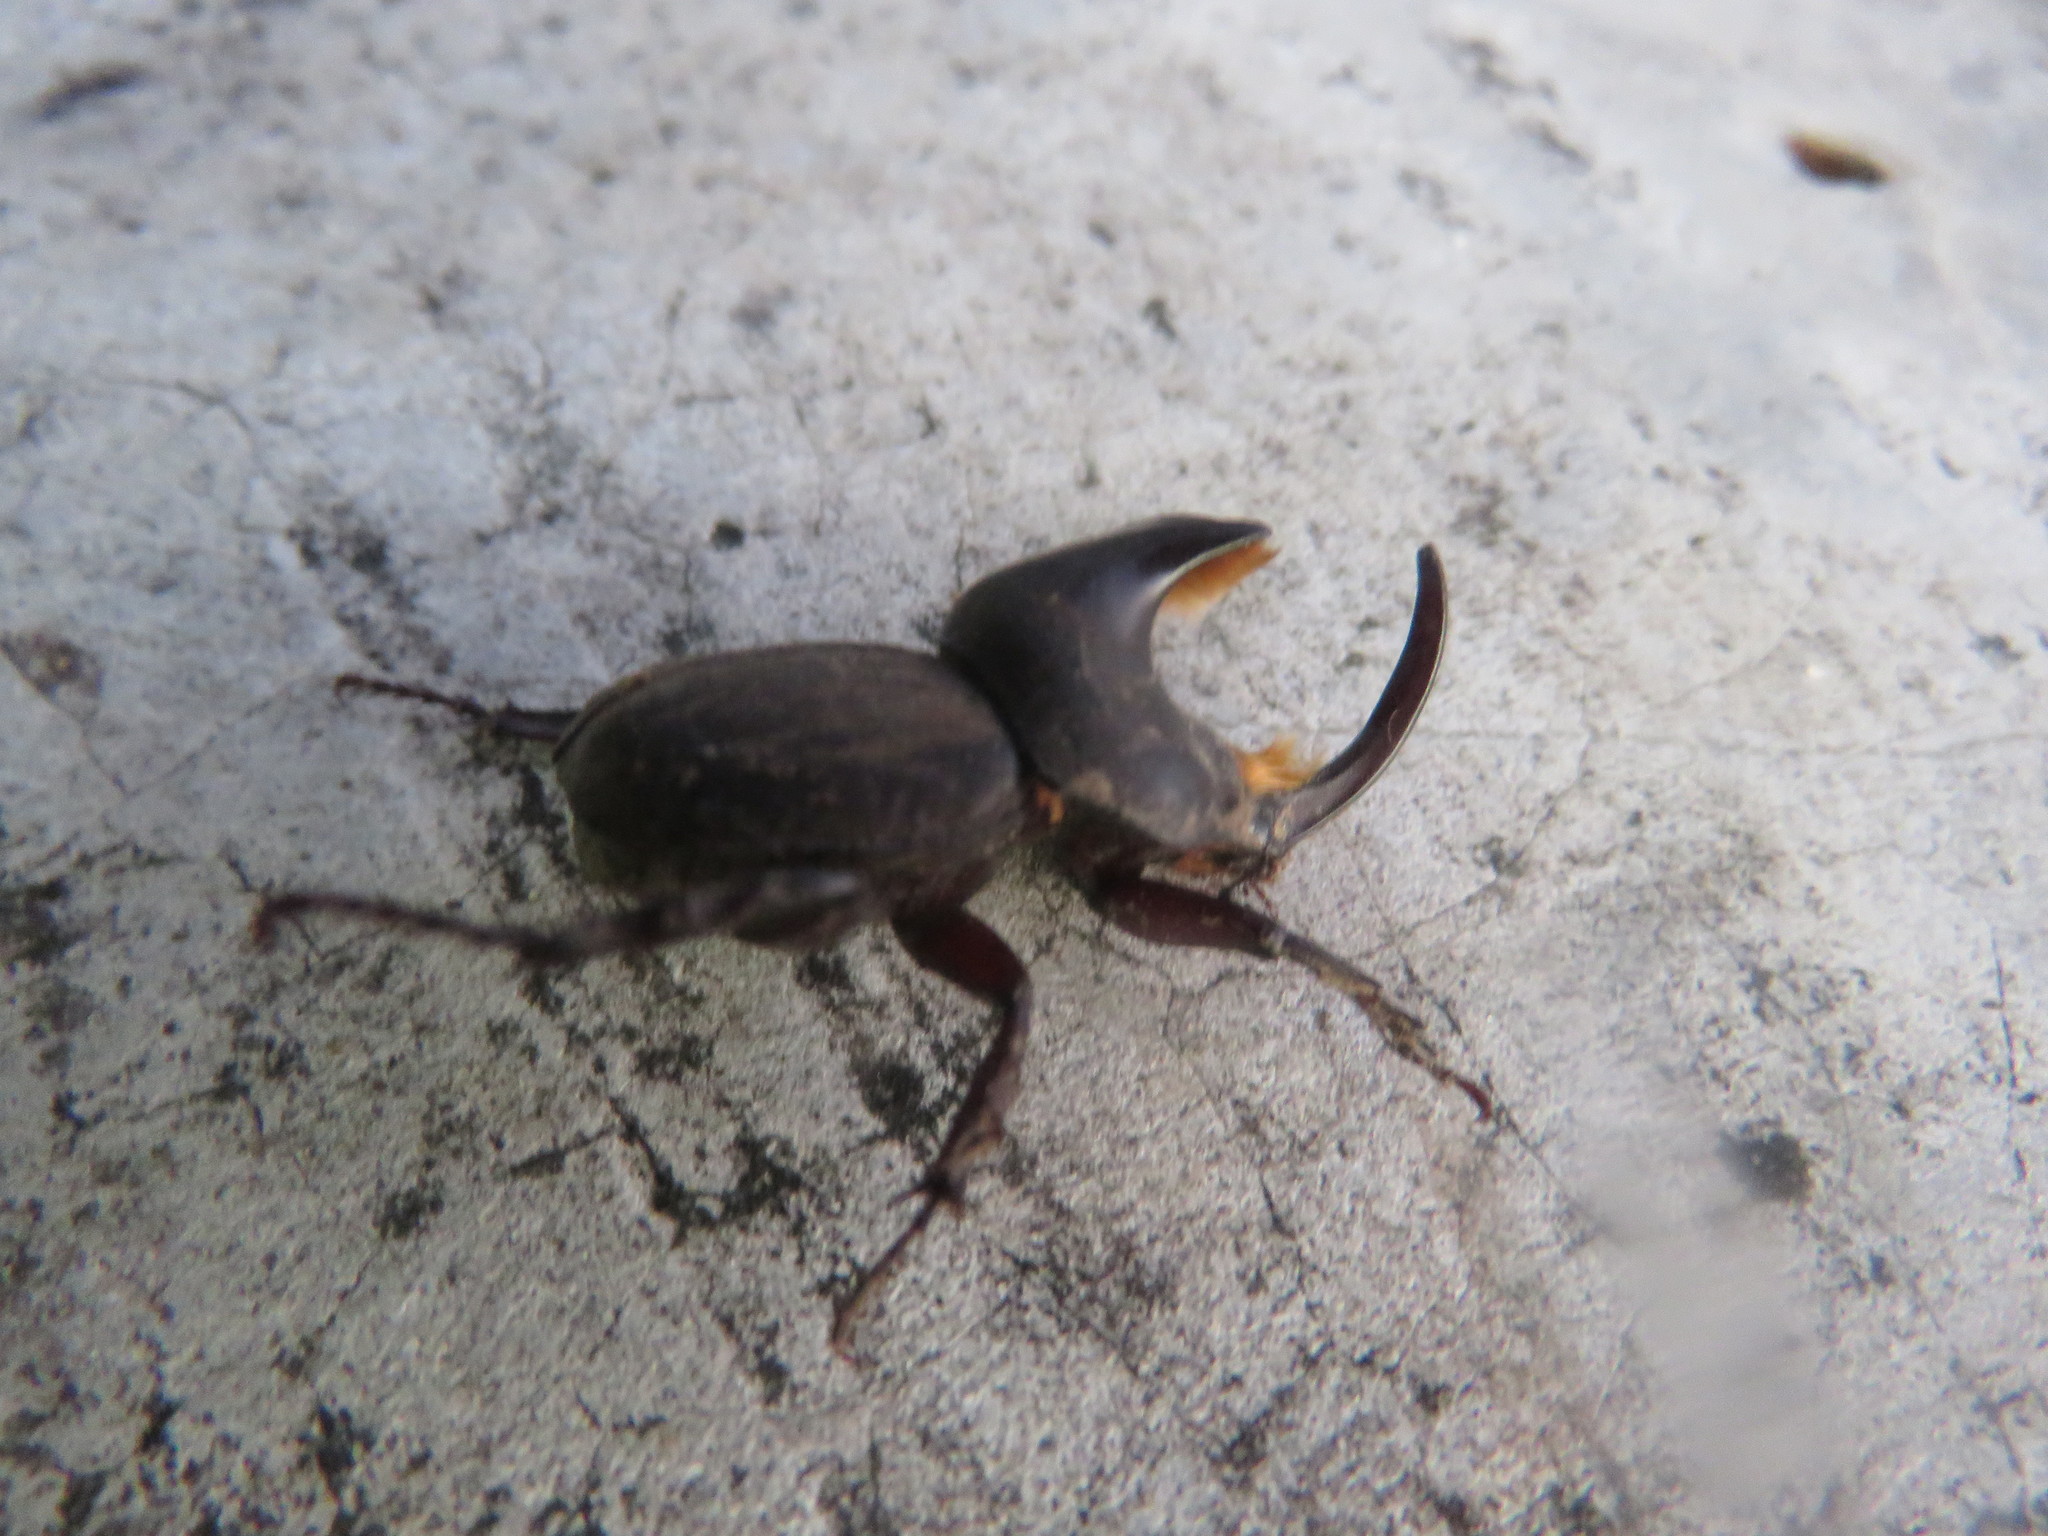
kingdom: Animalia
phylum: Arthropoda
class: Insecta
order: Coleoptera
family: Scarabaeidae
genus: Diloboderus
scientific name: Diloboderus abderus
